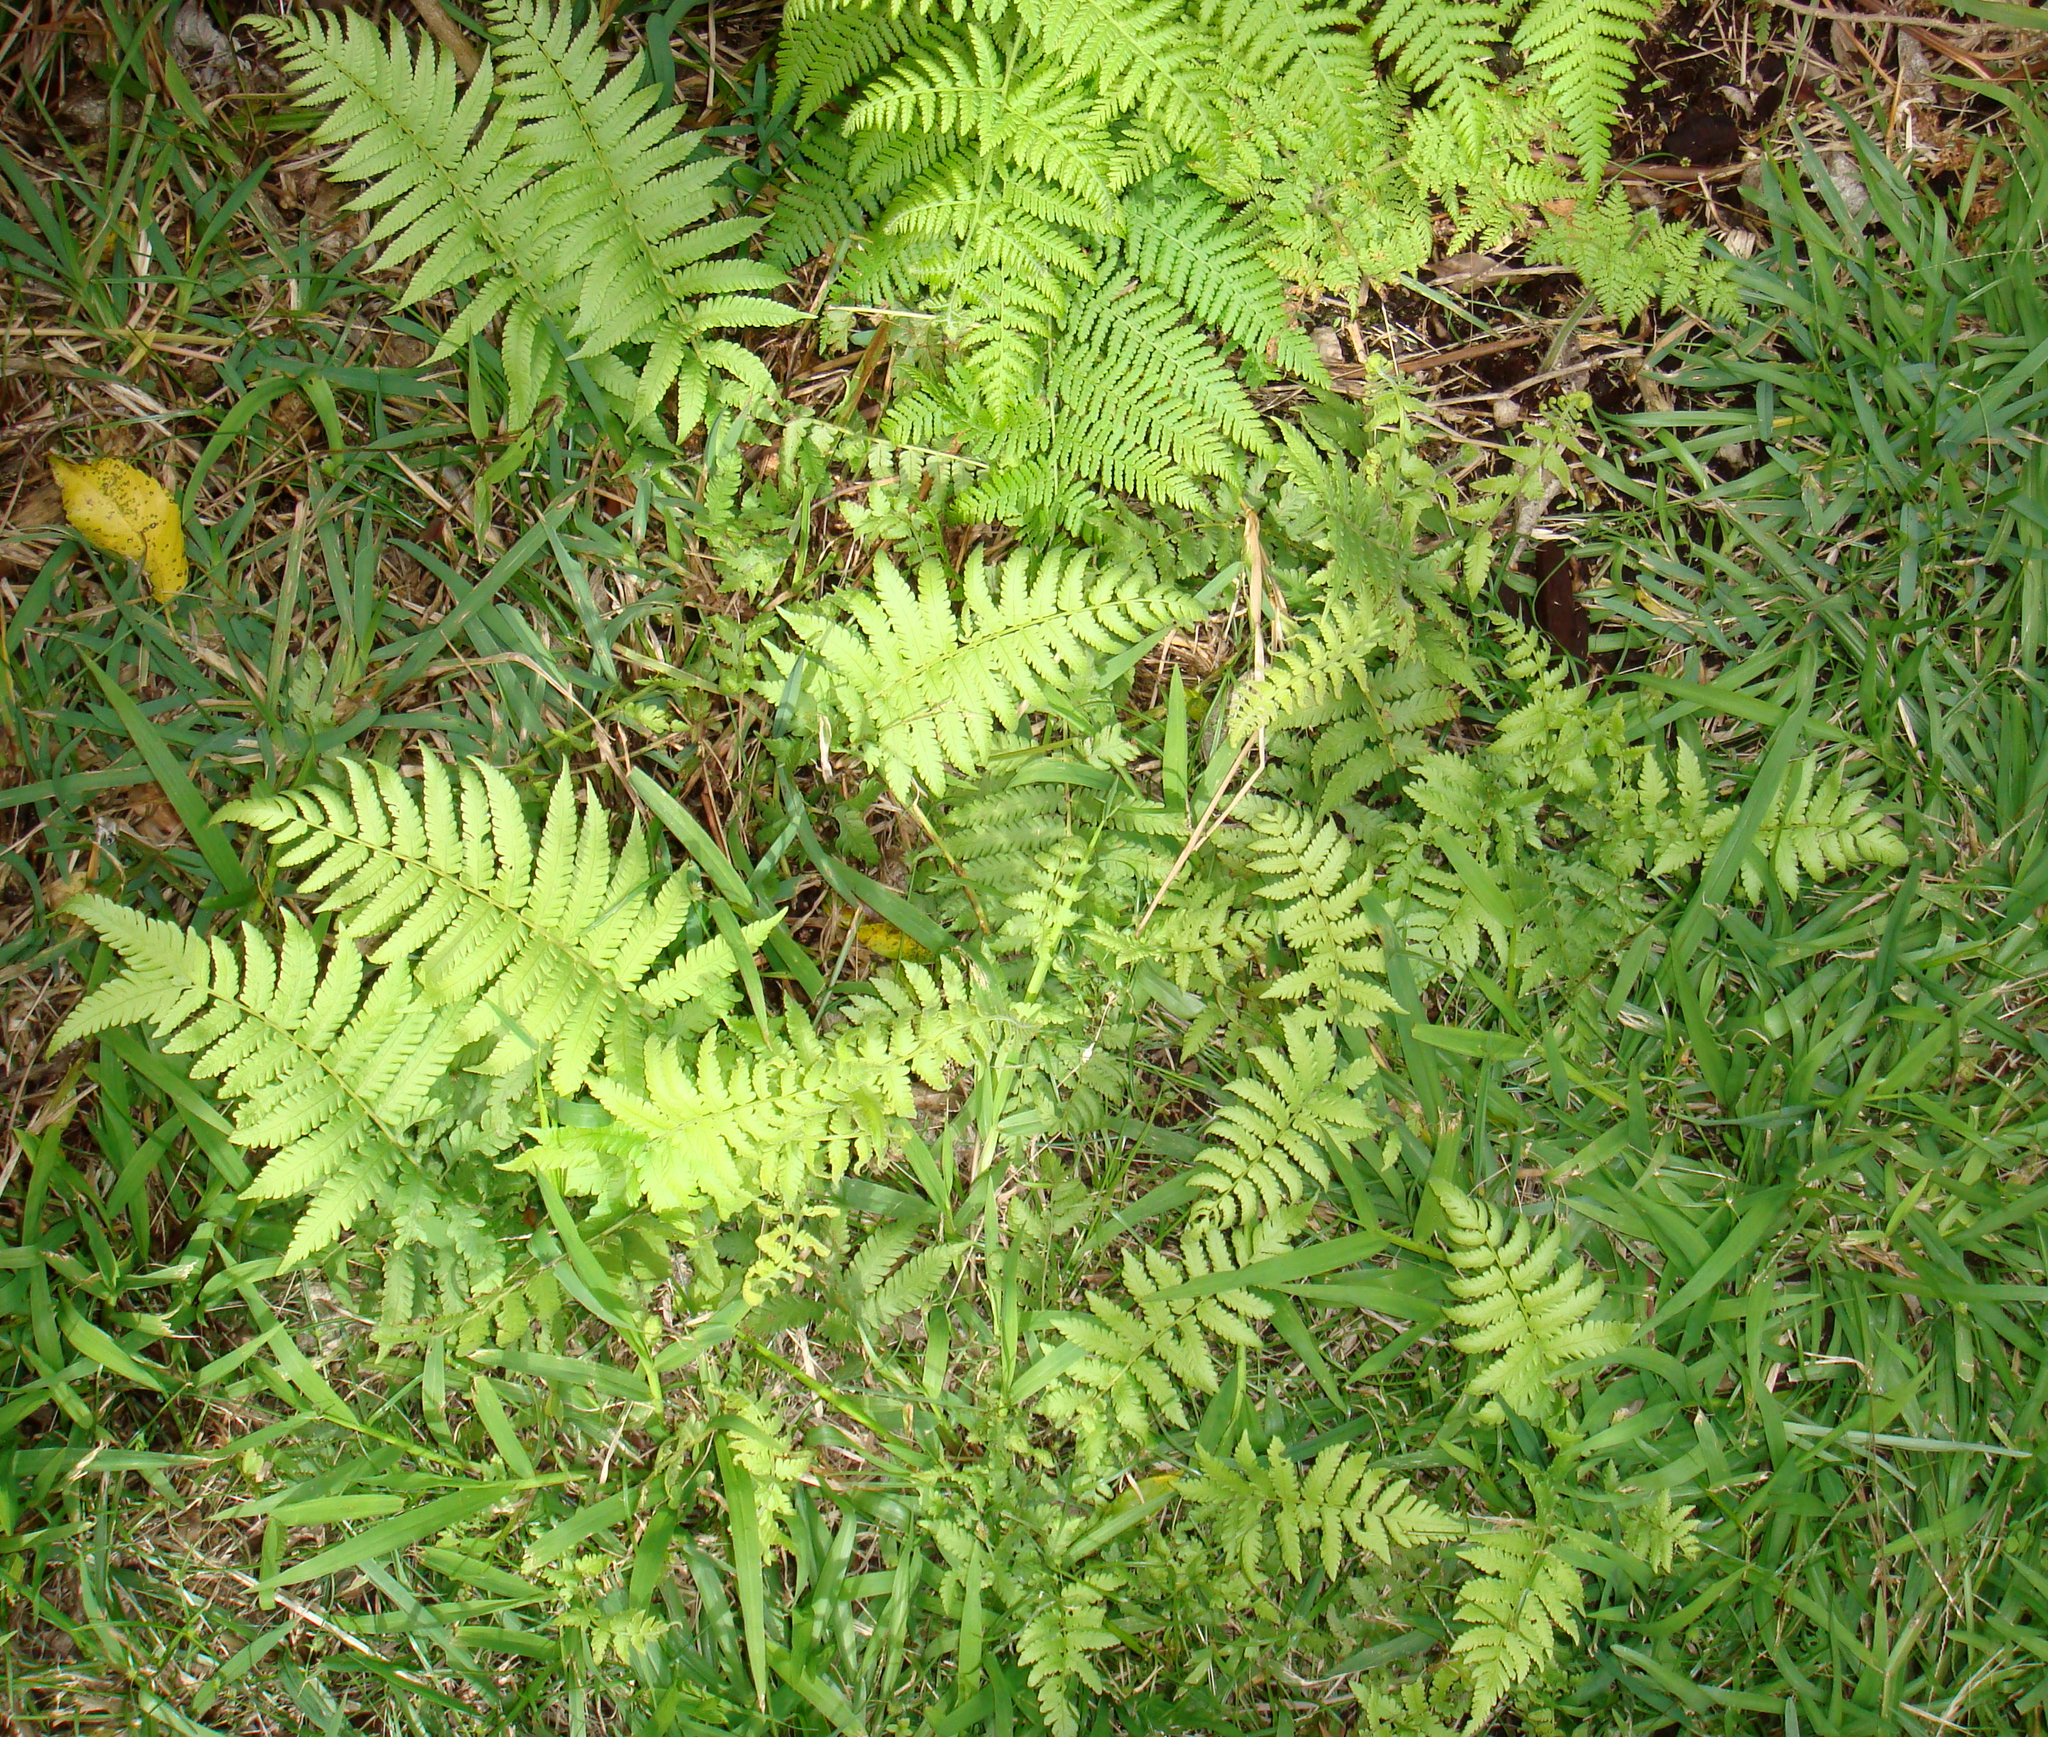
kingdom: Plantae
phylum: Tracheophyta
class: Polypodiopsida
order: Polypodiales
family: Thelypteridaceae
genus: Christella
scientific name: Christella dentata
